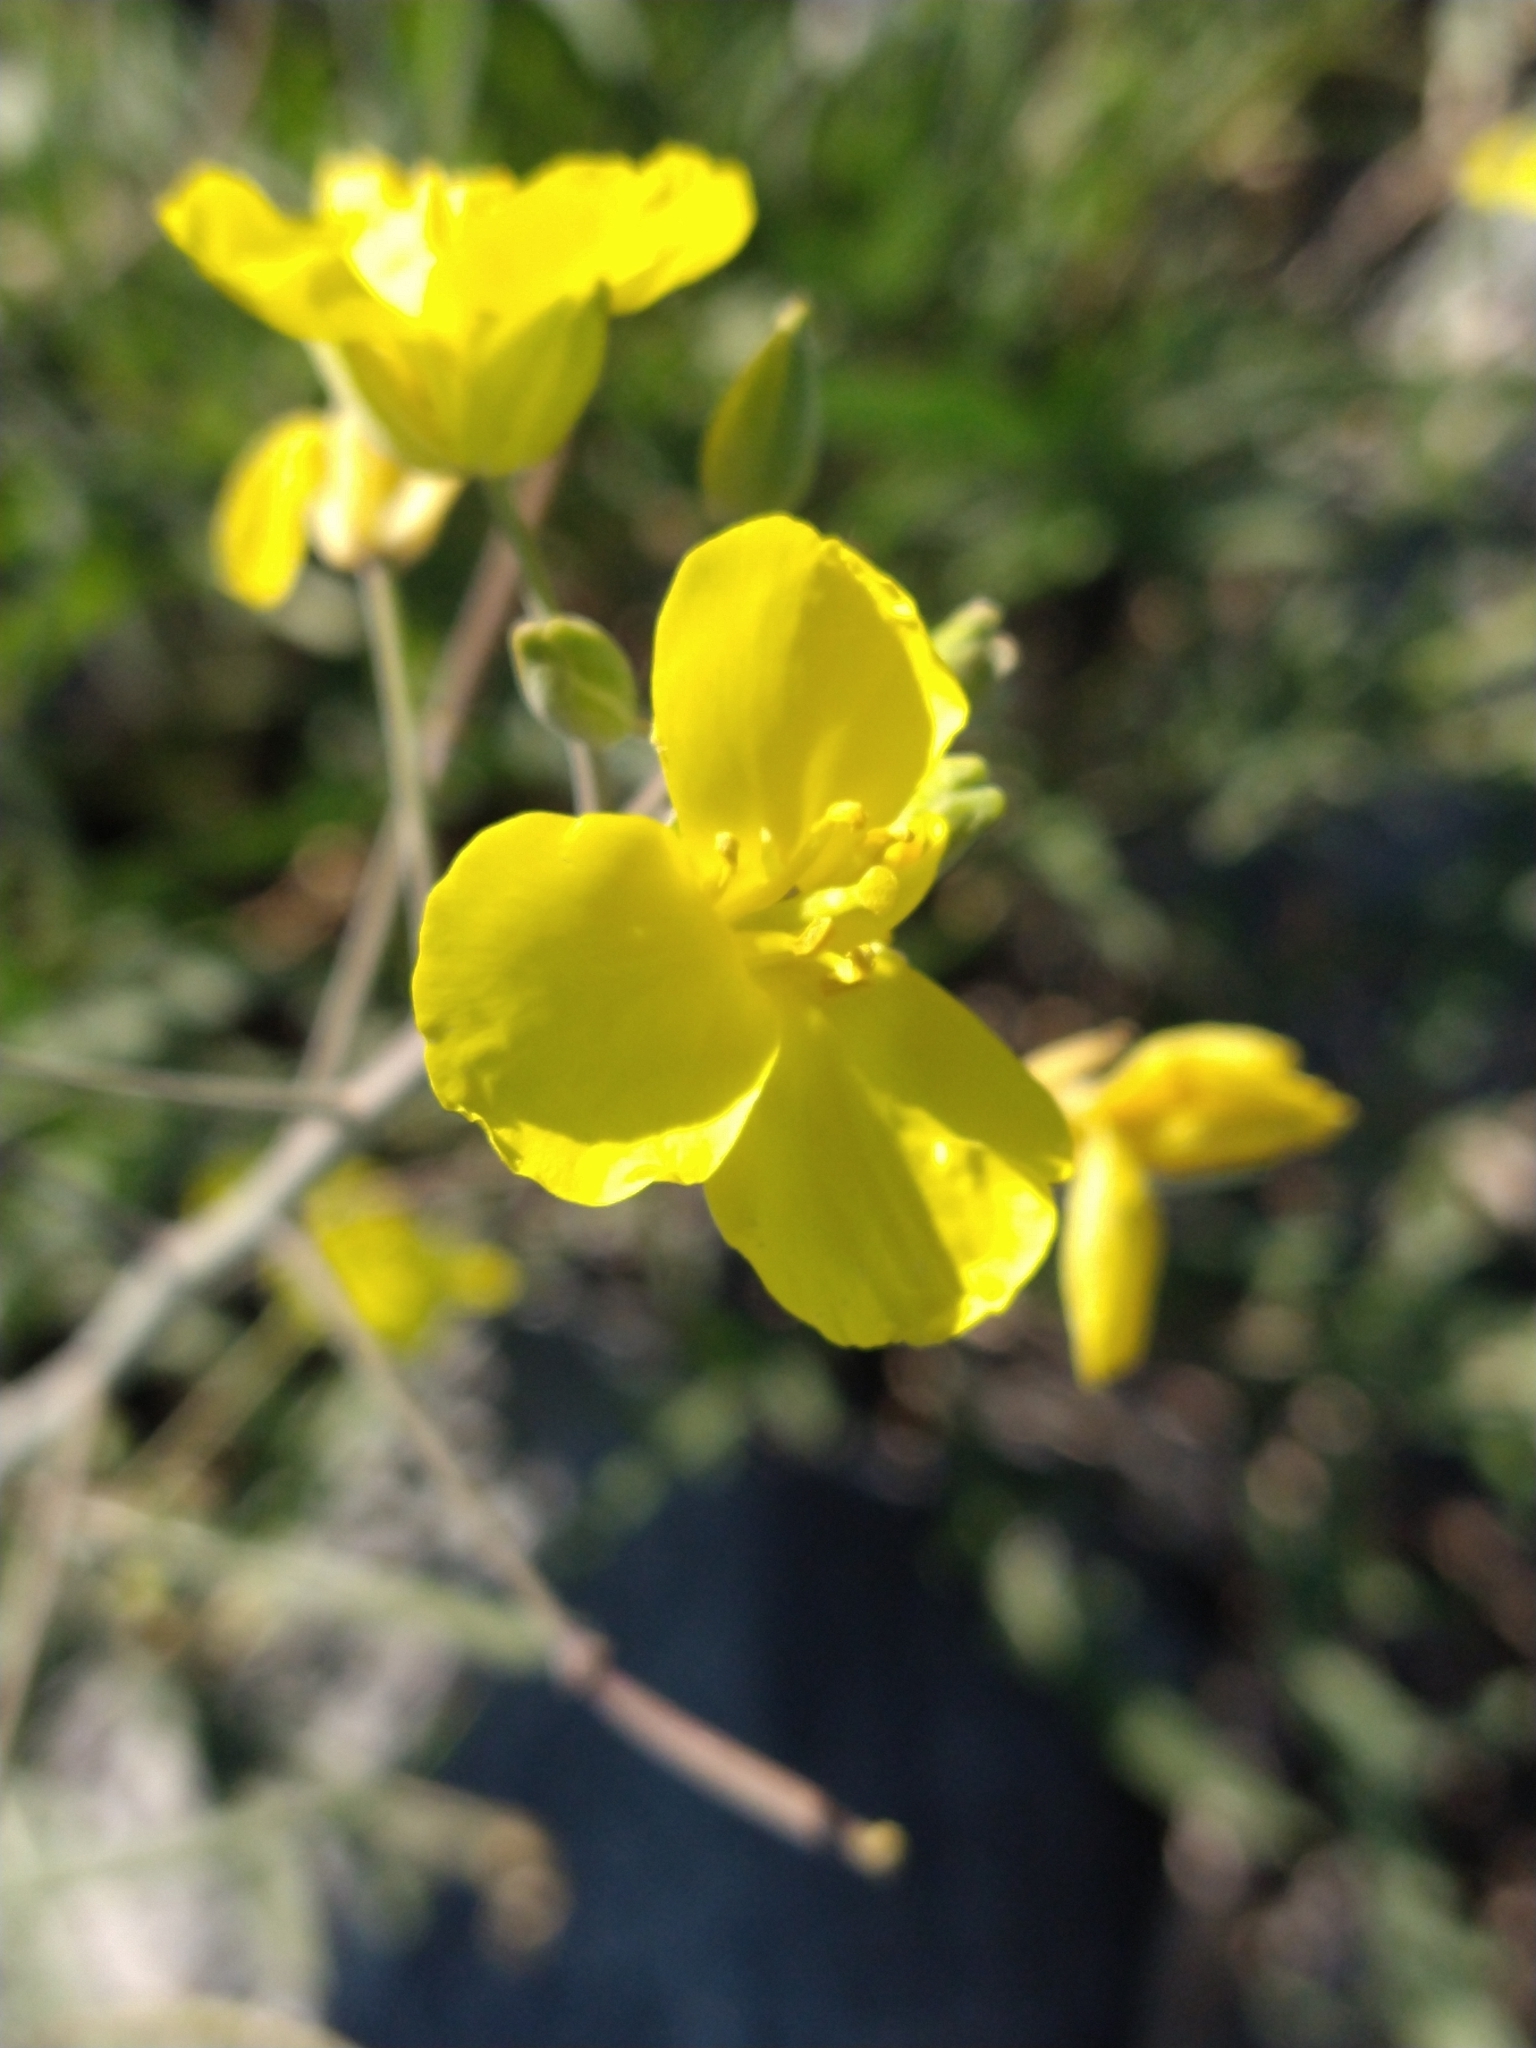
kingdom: Plantae
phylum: Tracheophyta
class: Magnoliopsida
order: Brassicales
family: Brassicaceae
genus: Diplotaxis
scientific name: Diplotaxis tenuifolia
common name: Perennial wall-rocket
